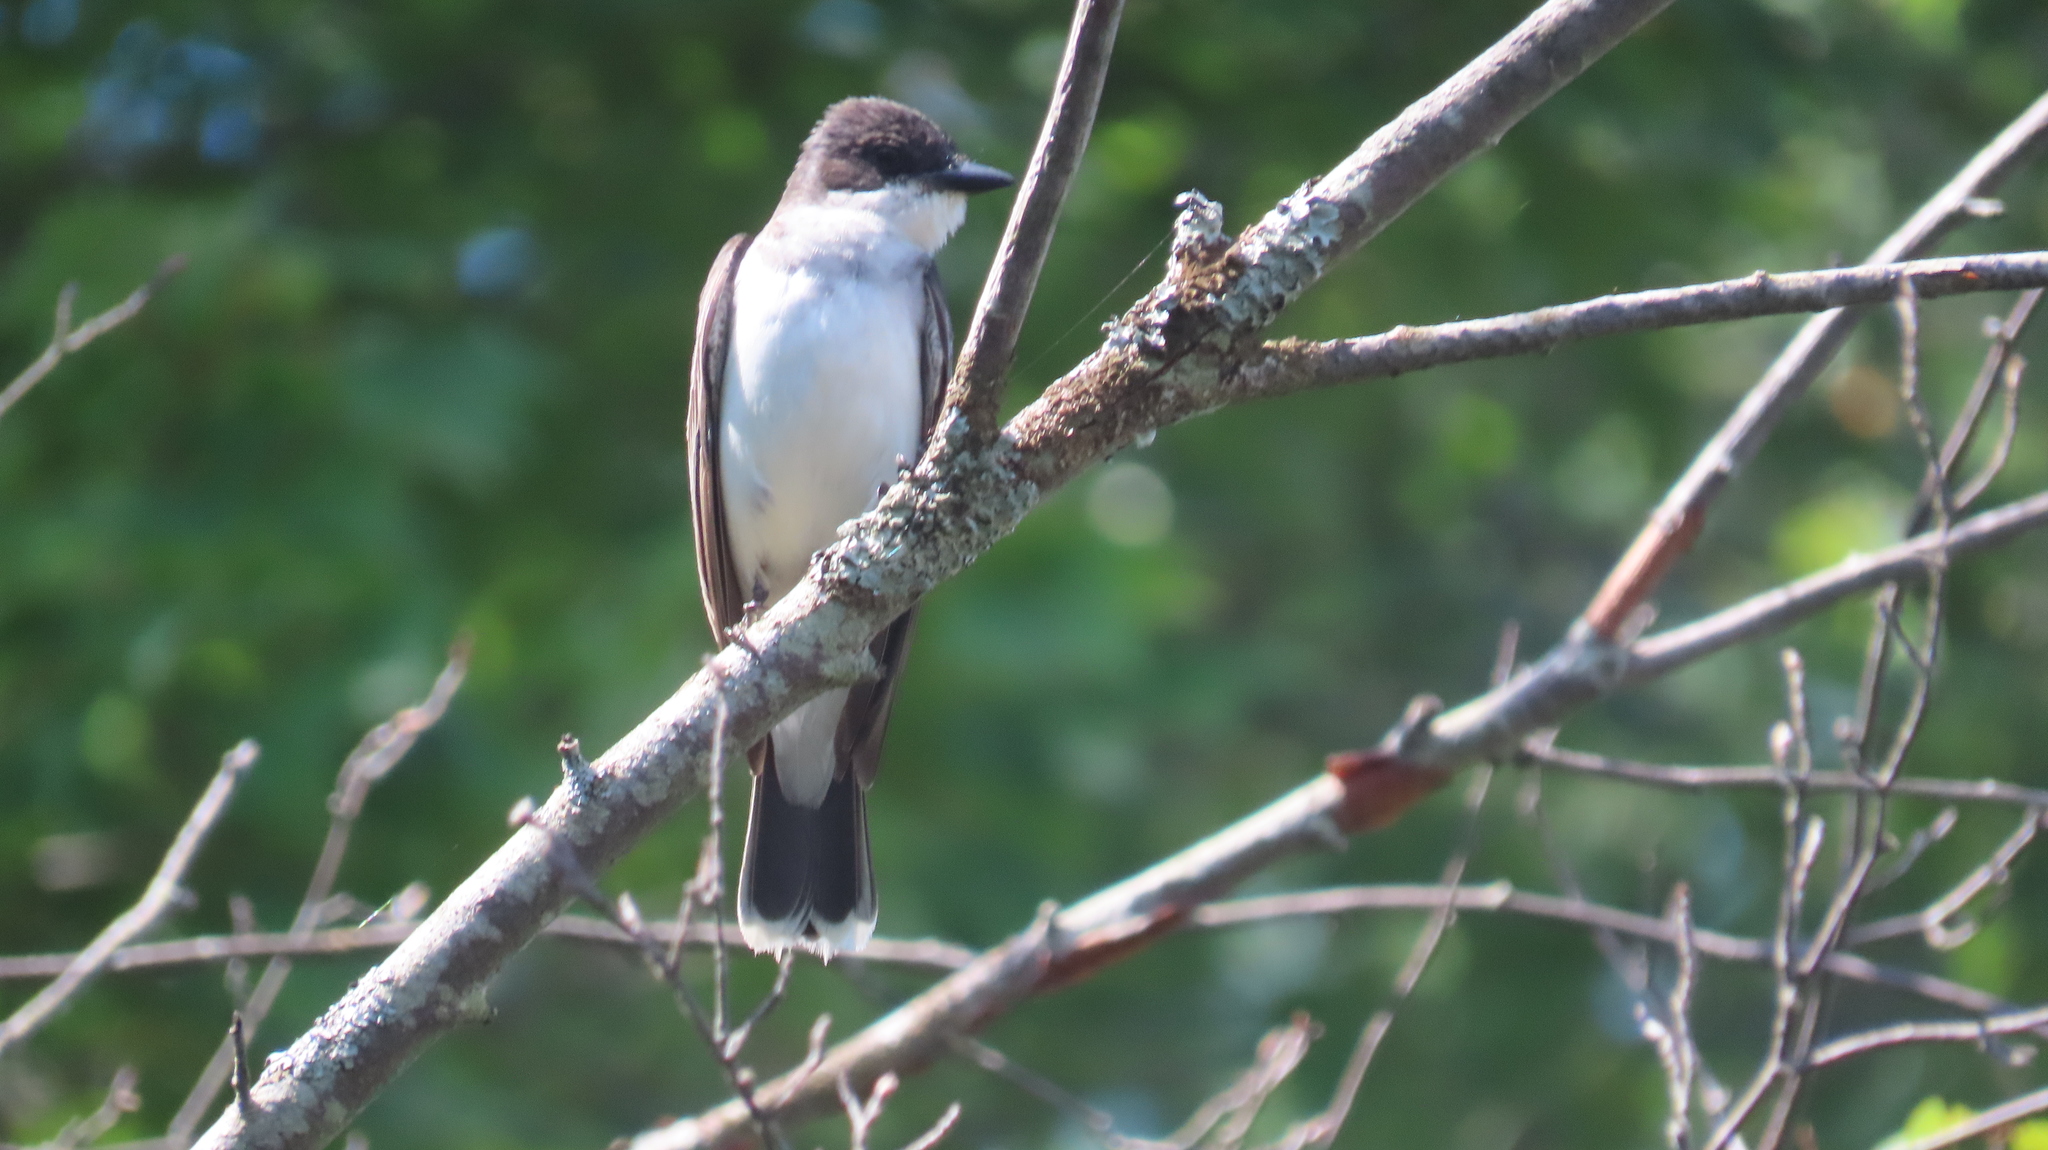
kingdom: Animalia
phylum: Chordata
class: Aves
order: Passeriformes
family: Tyrannidae
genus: Tyrannus
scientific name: Tyrannus tyrannus
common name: Eastern kingbird
